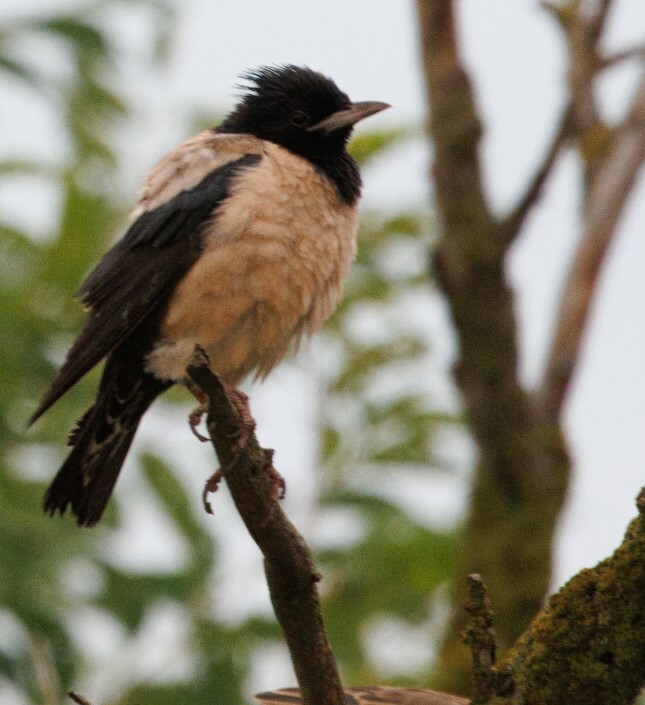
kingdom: Animalia
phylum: Chordata
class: Aves
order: Passeriformes
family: Sturnidae
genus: Pastor
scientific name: Pastor roseus
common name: Rosy starling
